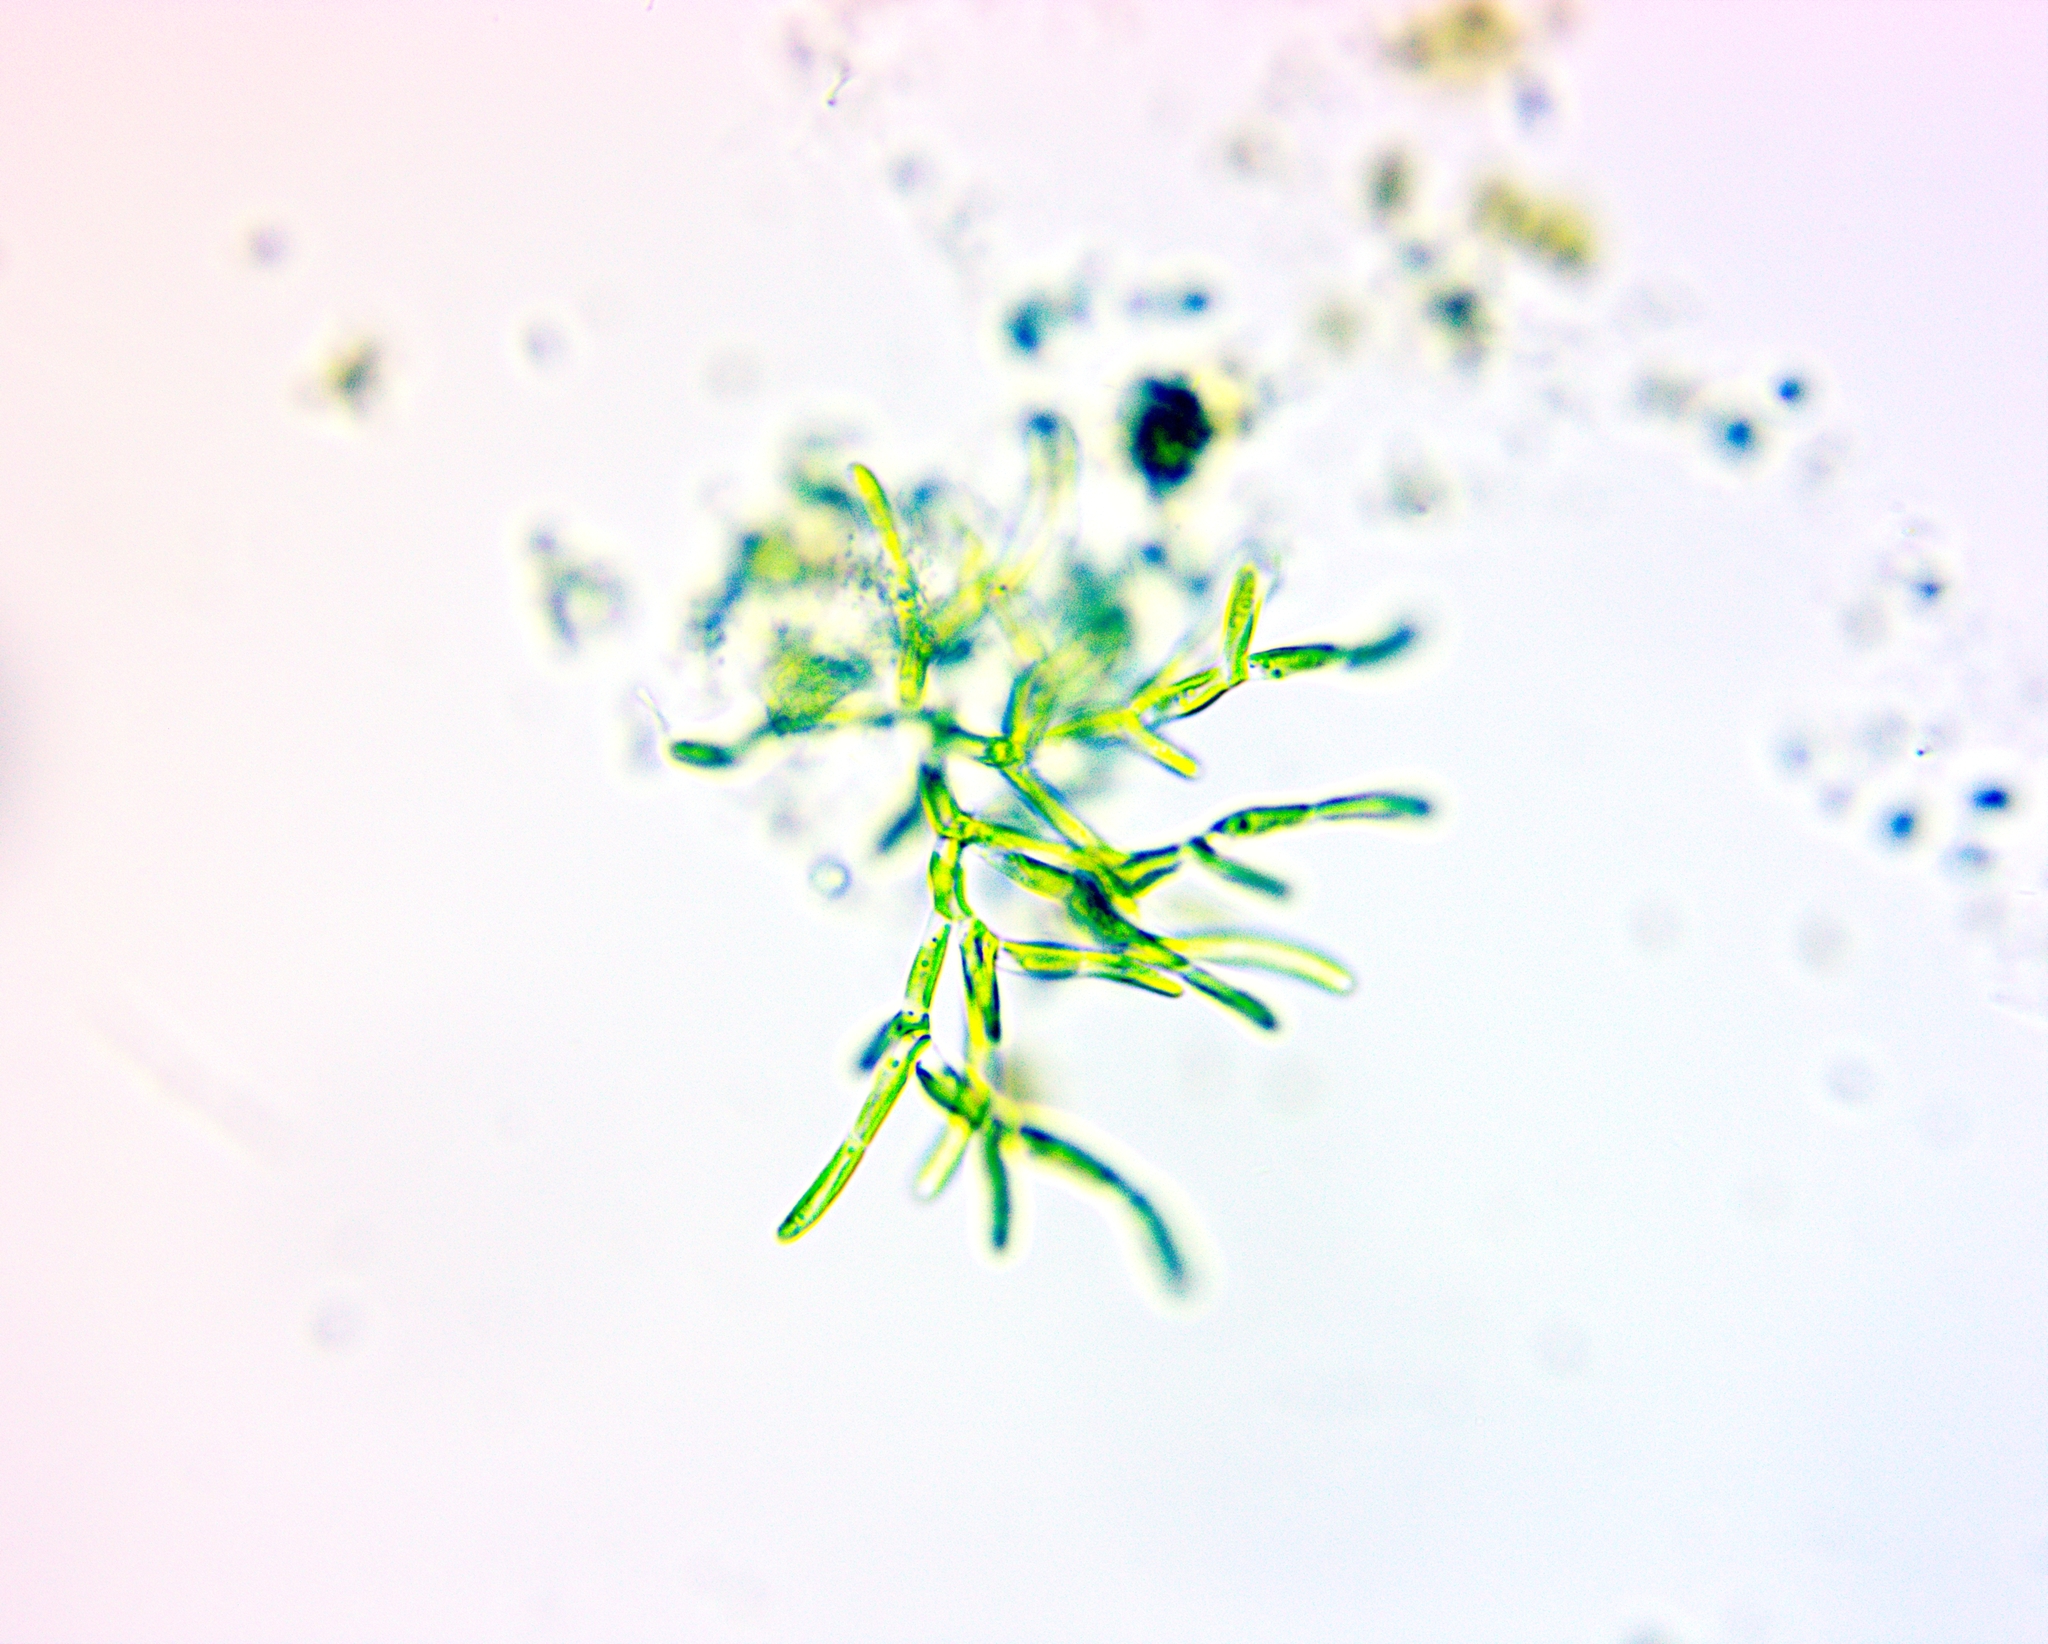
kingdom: Plantae
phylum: Chlorophyta
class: Trebouxiophyceae
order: Microthamniales
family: Microthamniaceae
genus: Microthamnion
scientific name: Microthamnion kuetzingianum
